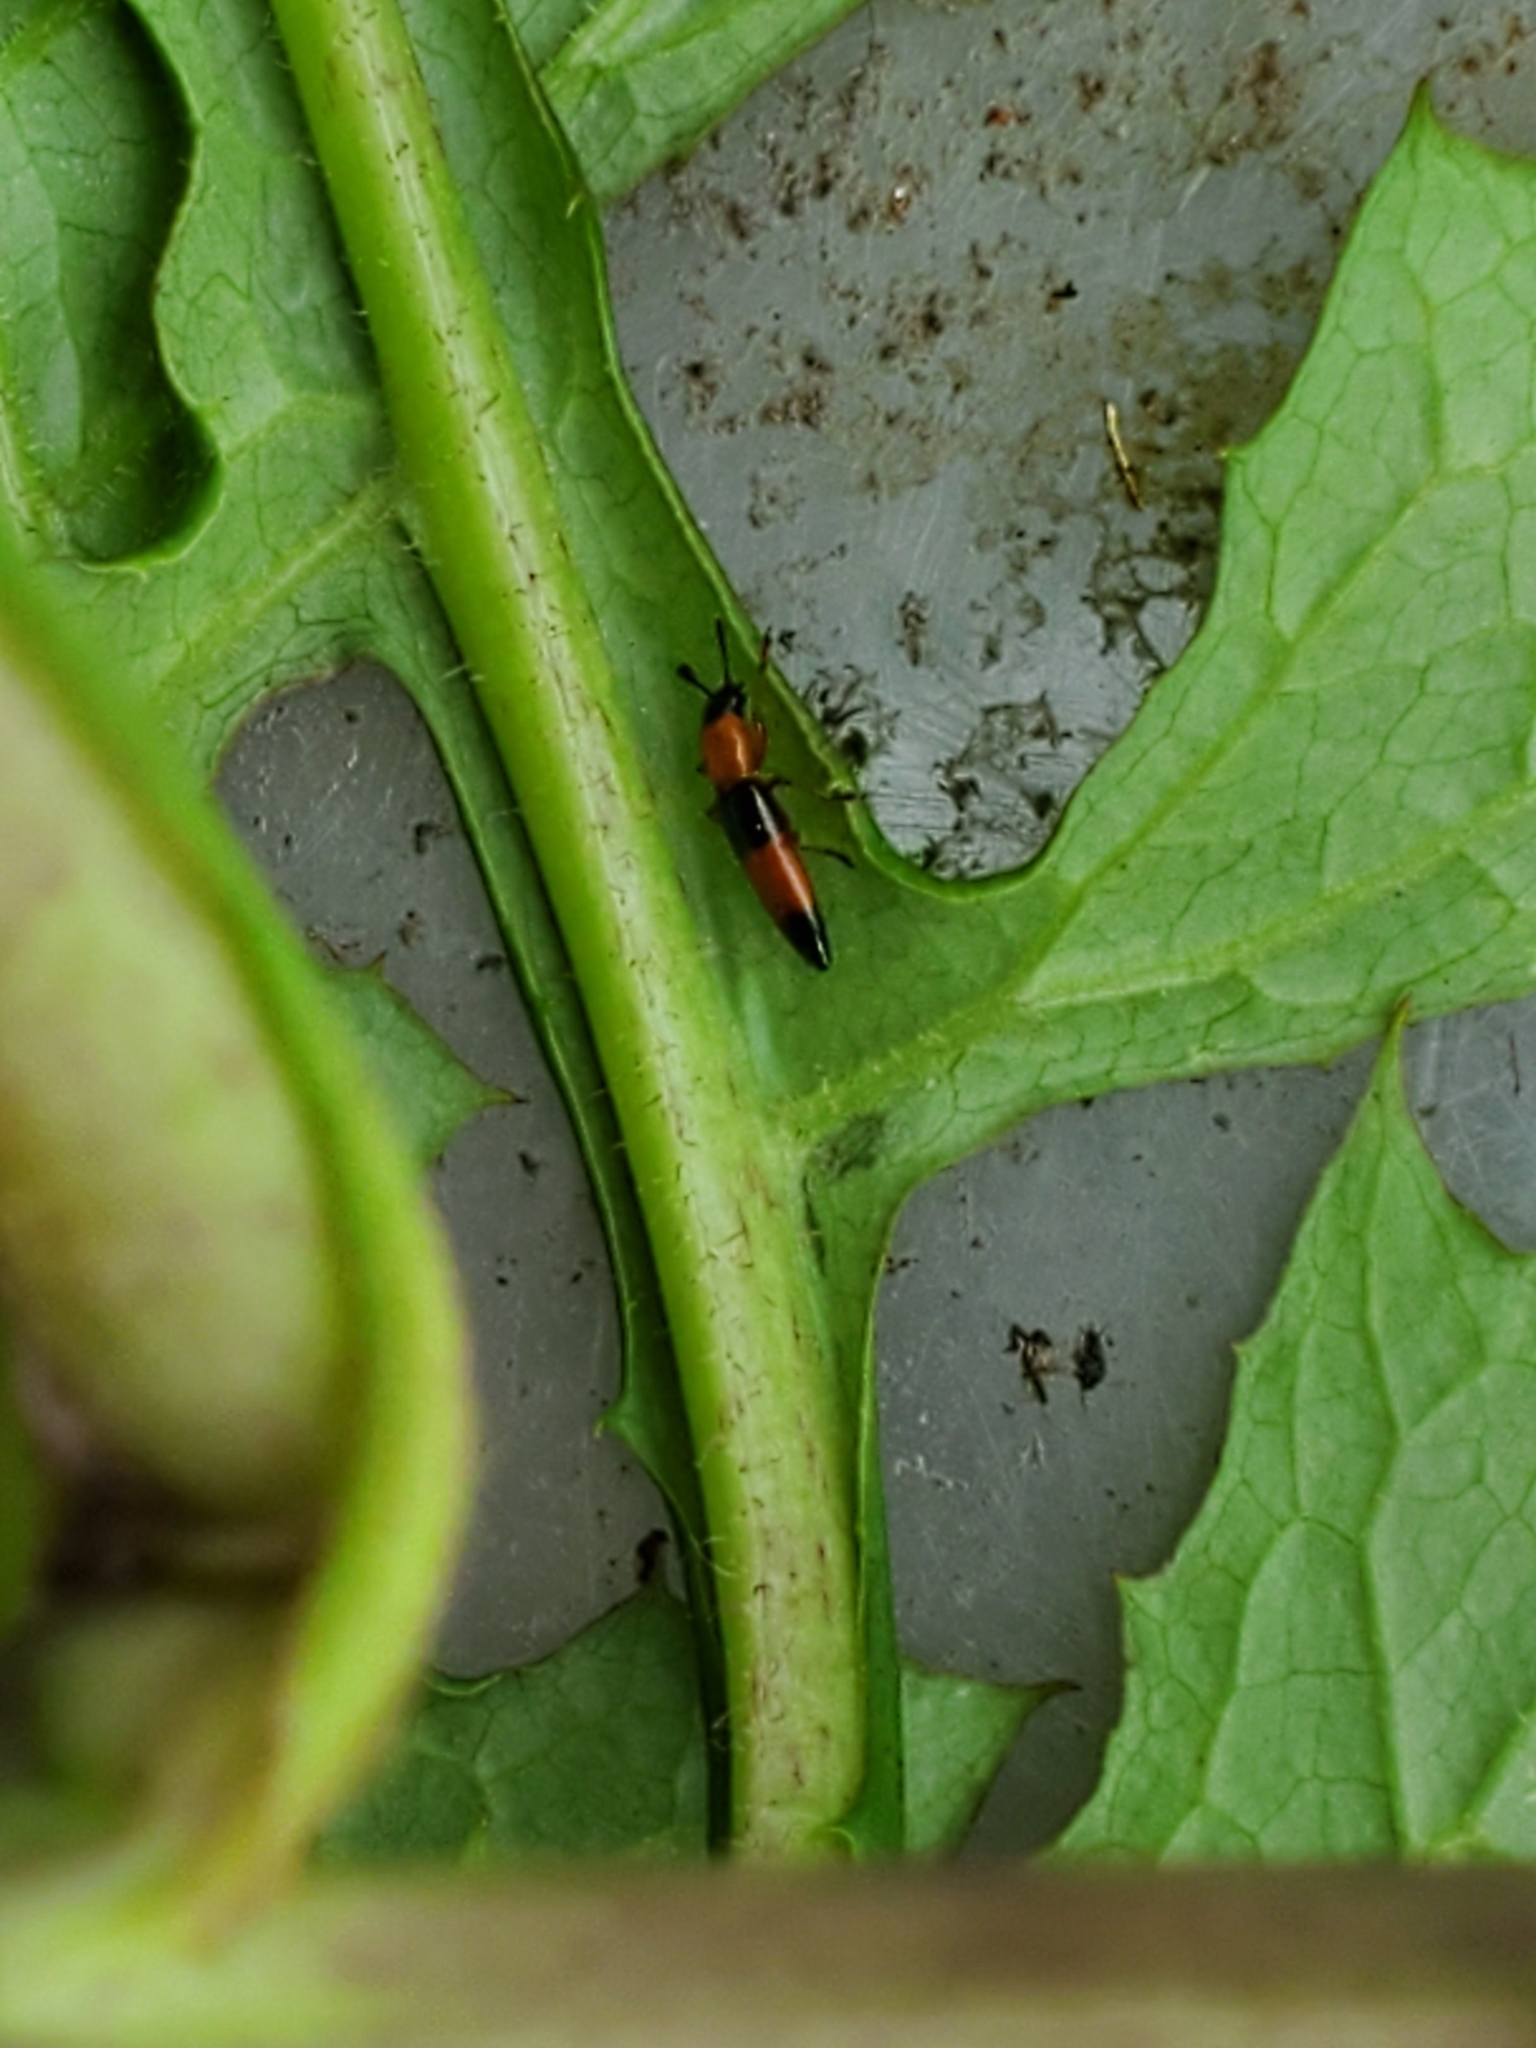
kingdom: Animalia
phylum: Arthropoda
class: Insecta
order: Coleoptera
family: Erotylidae
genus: Languria
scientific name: Languria trifasciata
